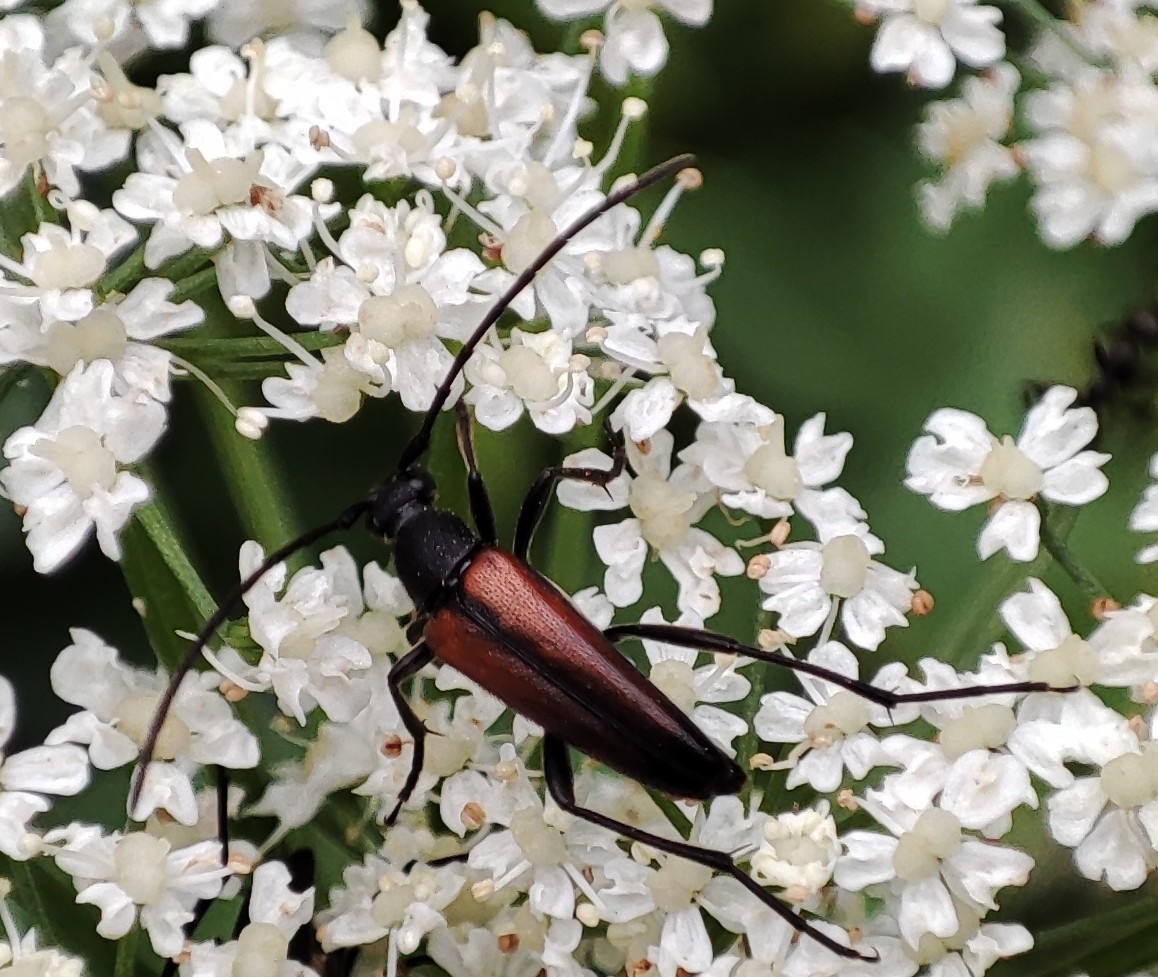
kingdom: Animalia
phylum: Arthropoda
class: Insecta
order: Coleoptera
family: Cerambycidae
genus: Stenurella
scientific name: Stenurella melanura
